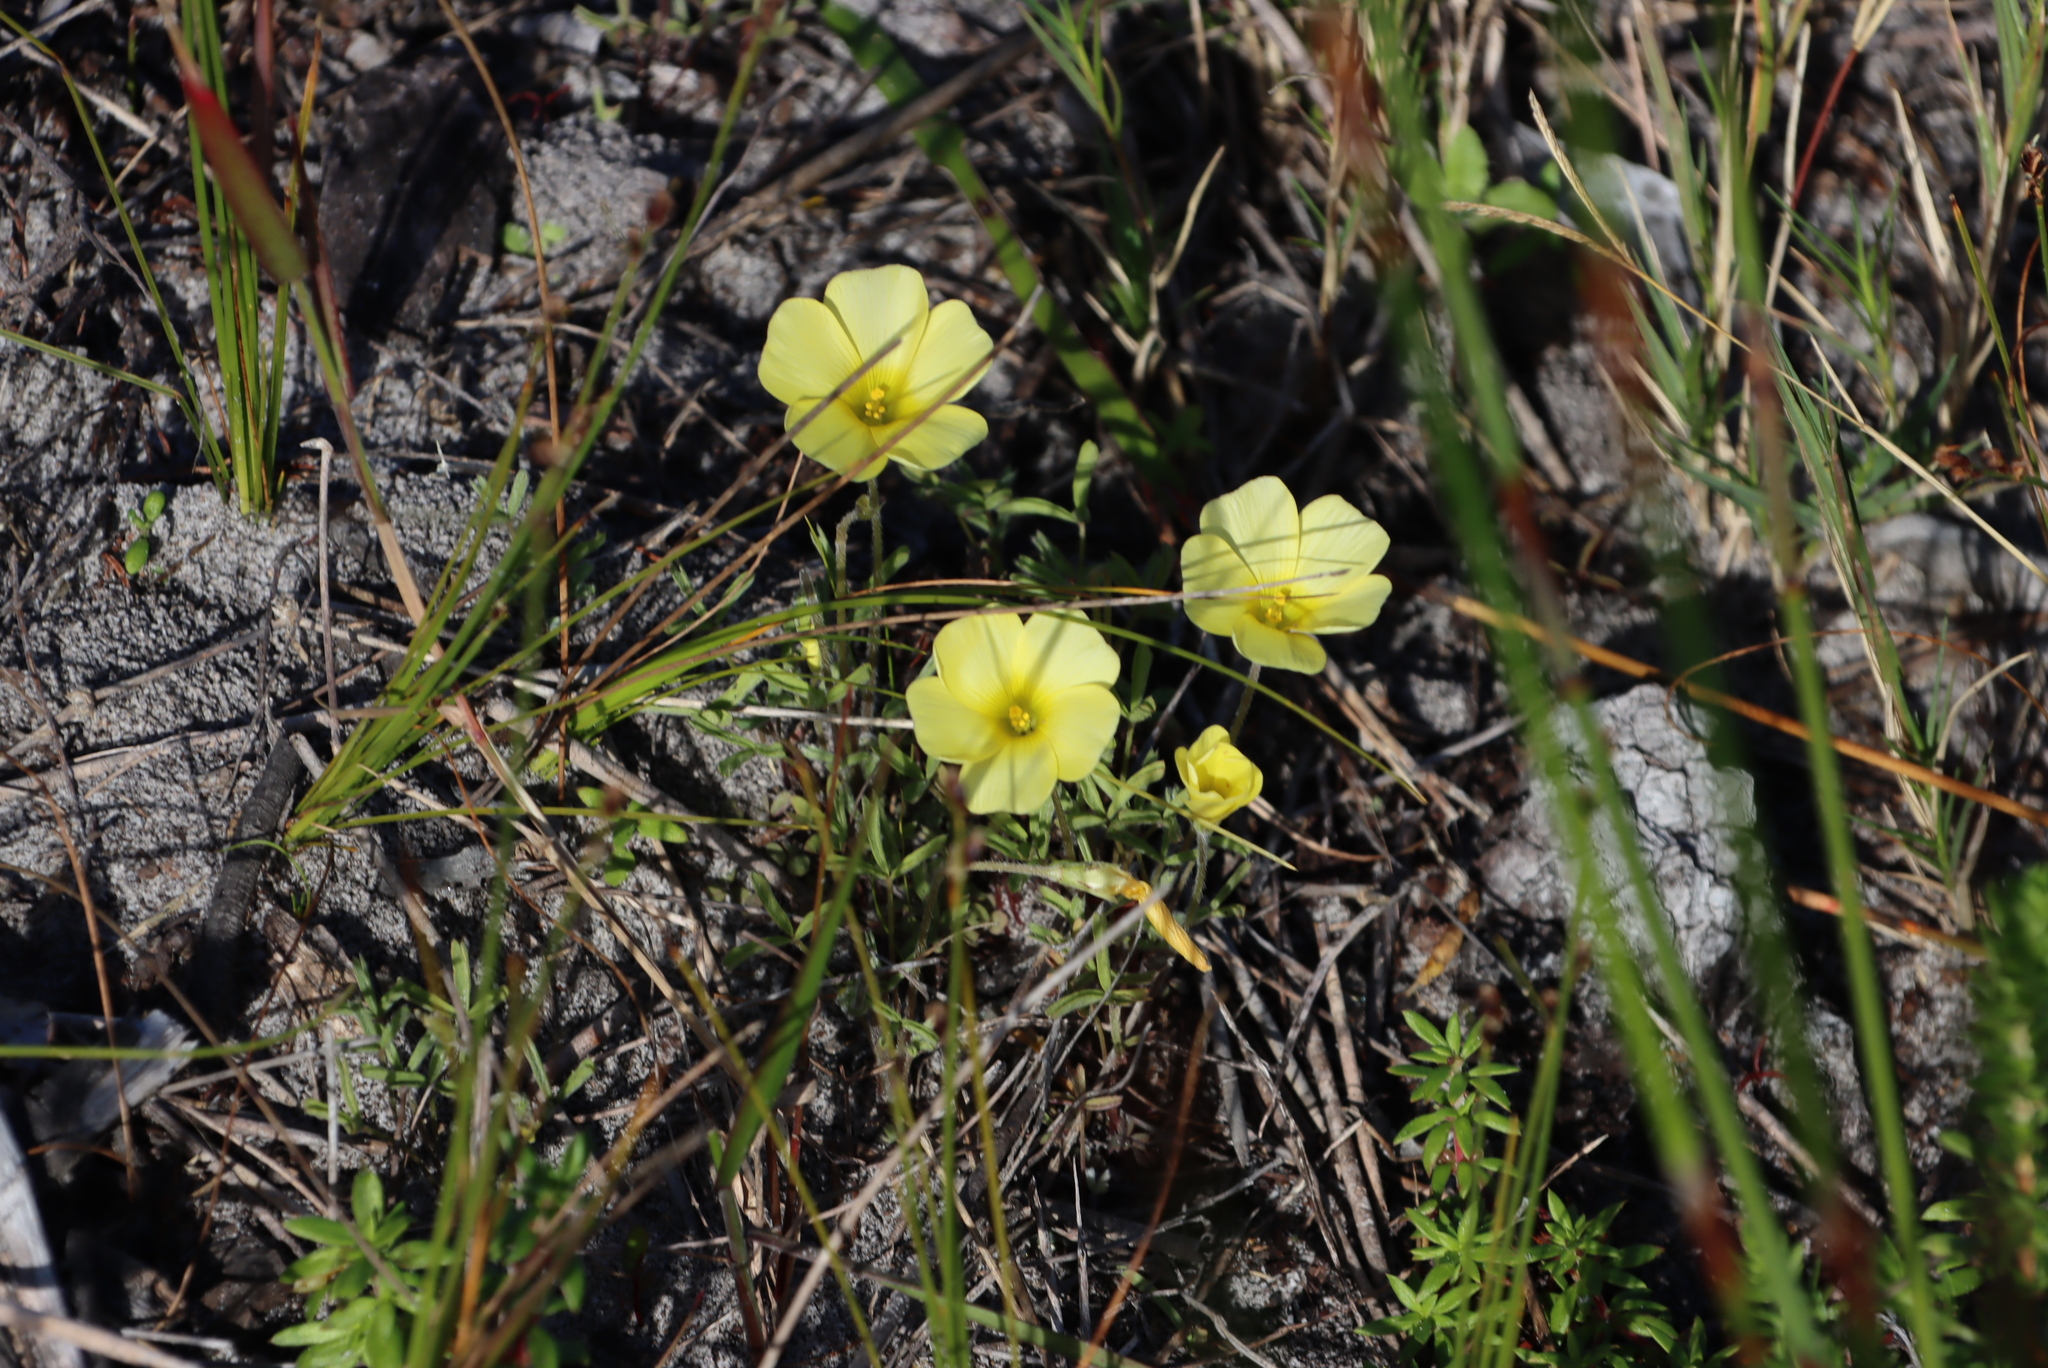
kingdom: Plantae
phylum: Tracheophyta
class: Magnoliopsida
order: Oxalidales
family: Oxalidaceae
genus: Oxalis
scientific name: Oxalis obtusa
